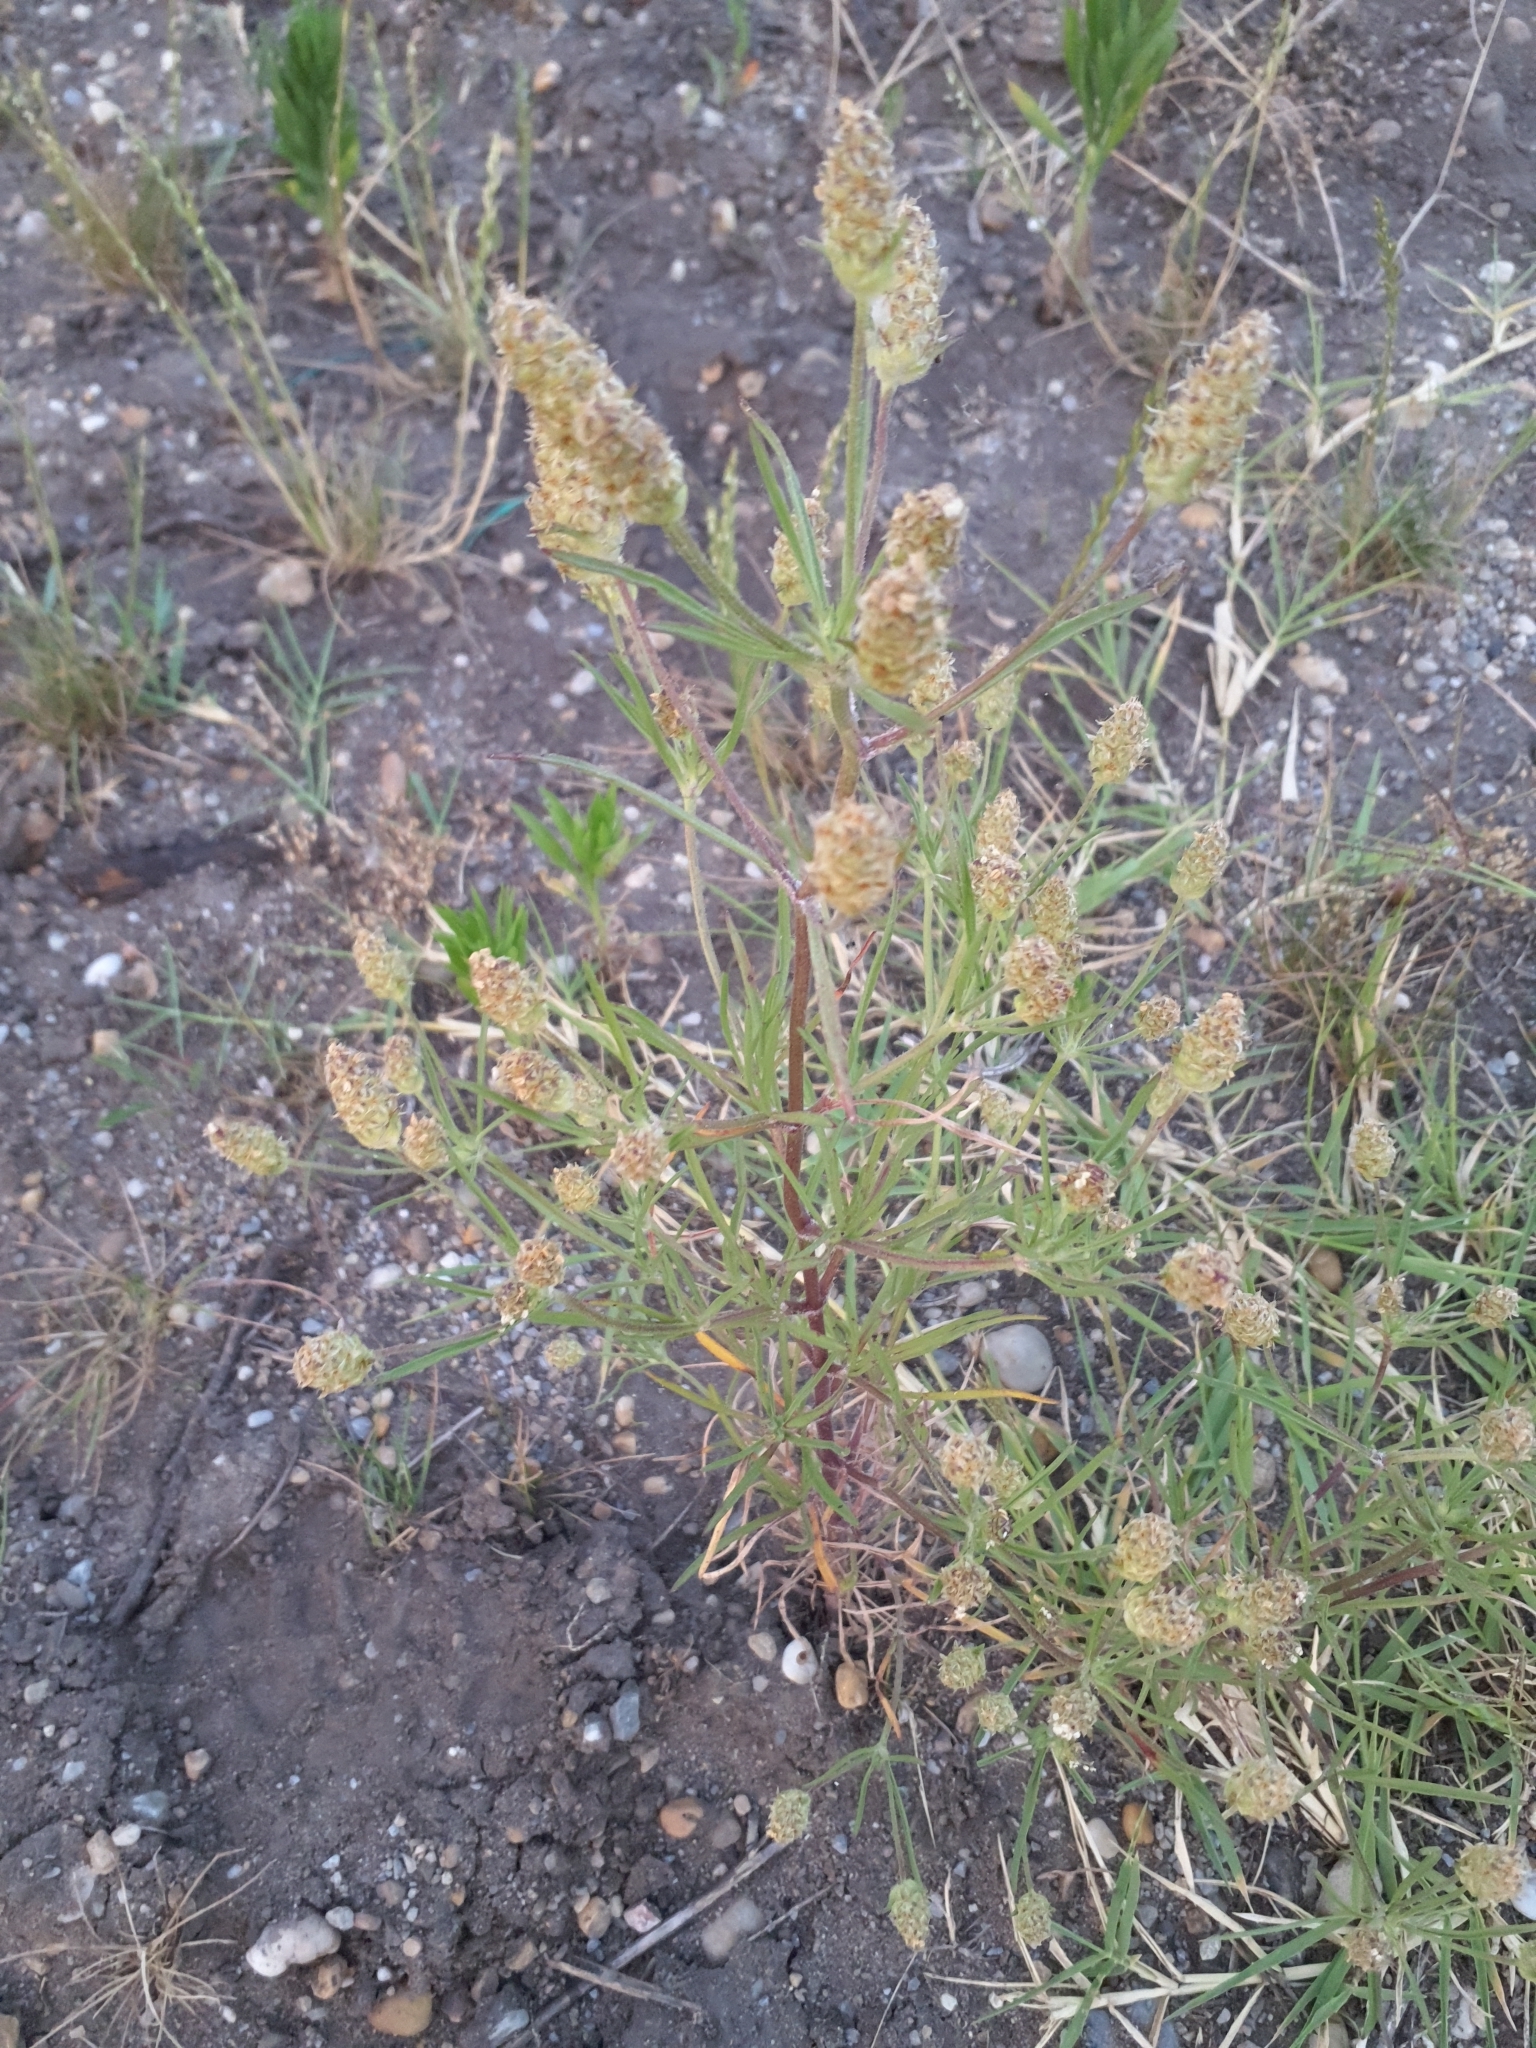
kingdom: Plantae
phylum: Tracheophyta
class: Magnoliopsida
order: Lamiales
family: Plantaginaceae
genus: Plantago
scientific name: Plantago arenaria
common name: Branched plantain
